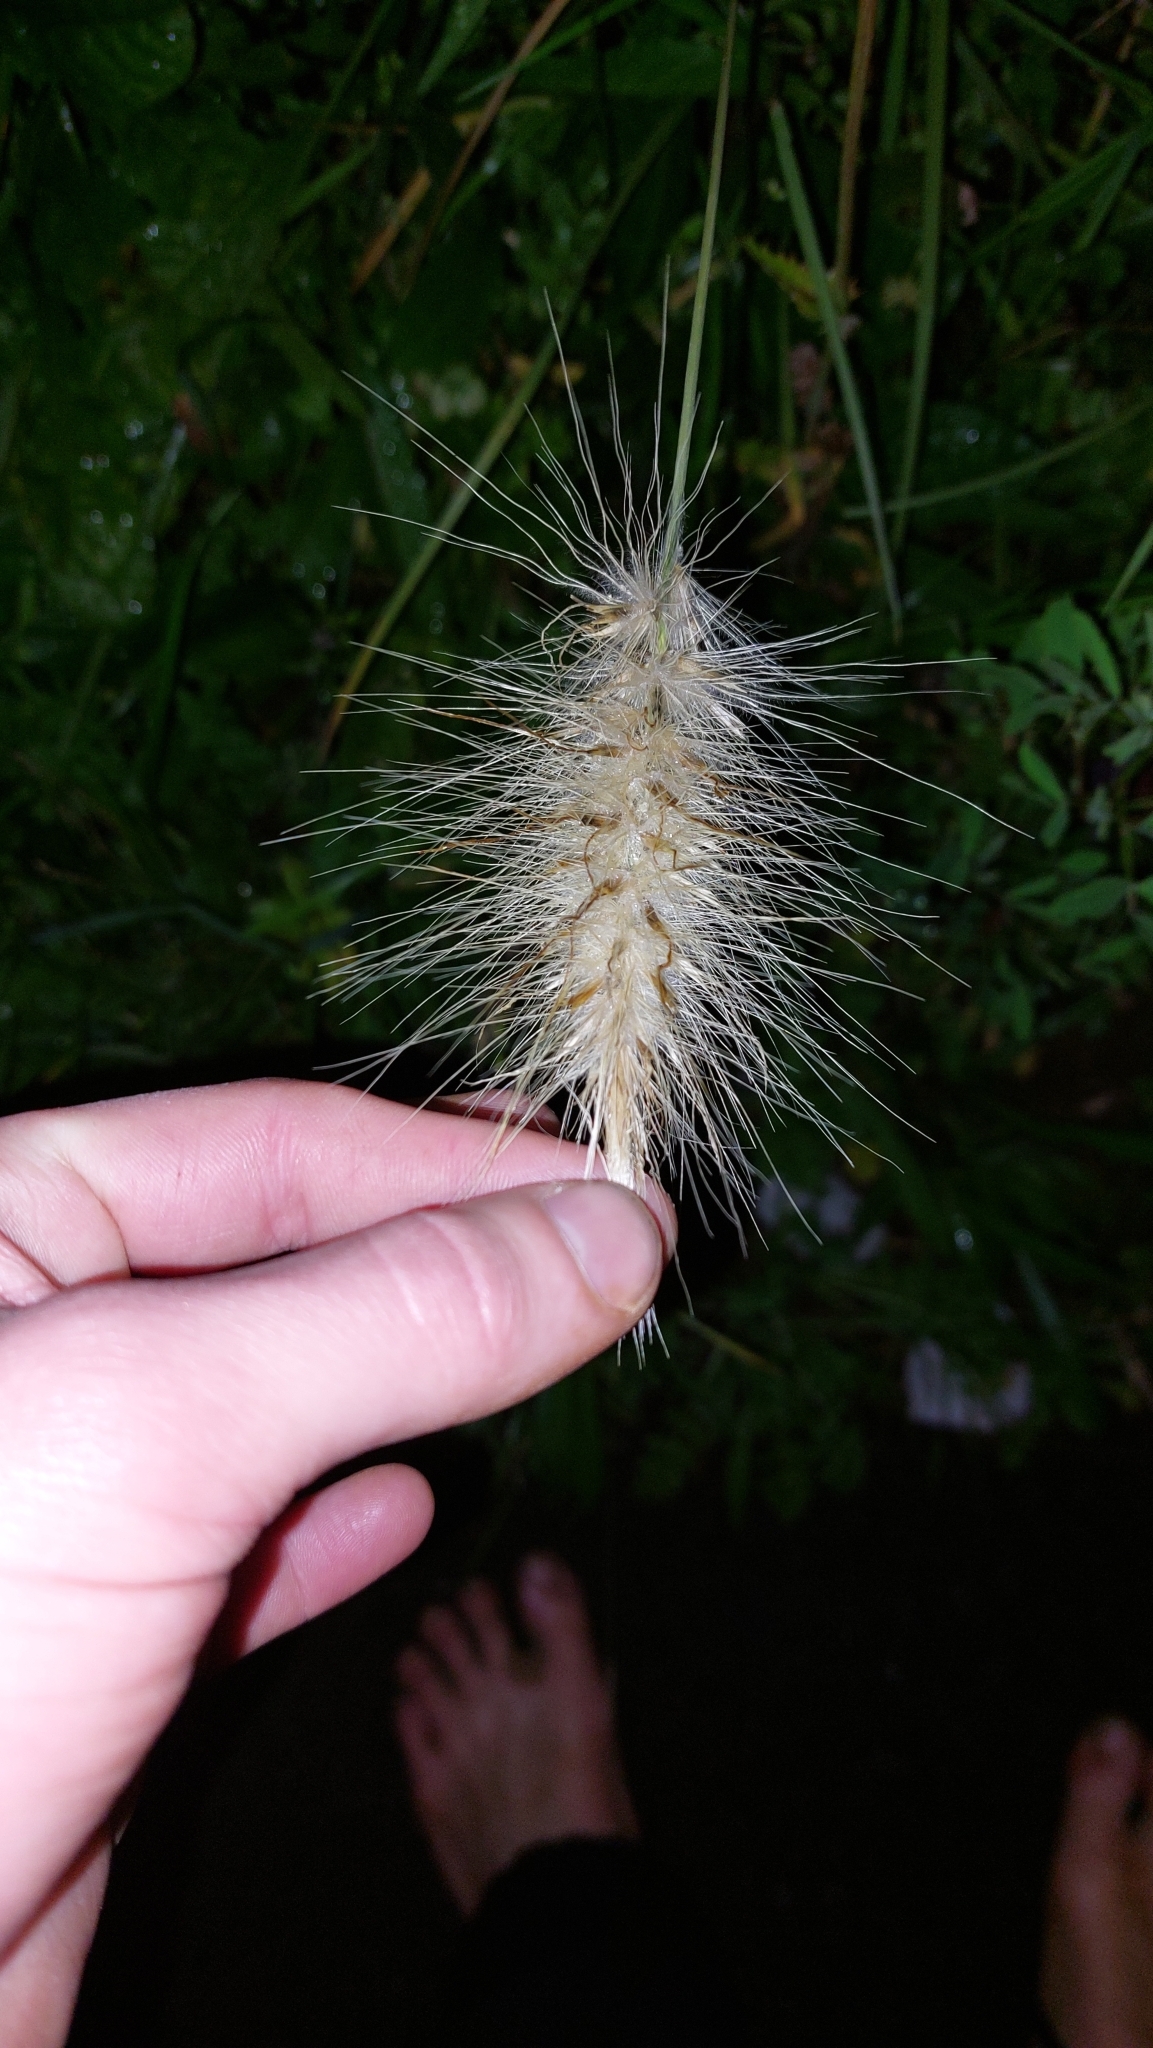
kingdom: Plantae
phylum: Tracheophyta
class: Liliopsida
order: Poales
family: Poaceae
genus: Cenchrus
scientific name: Cenchrus longisetus
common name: Feathertop
